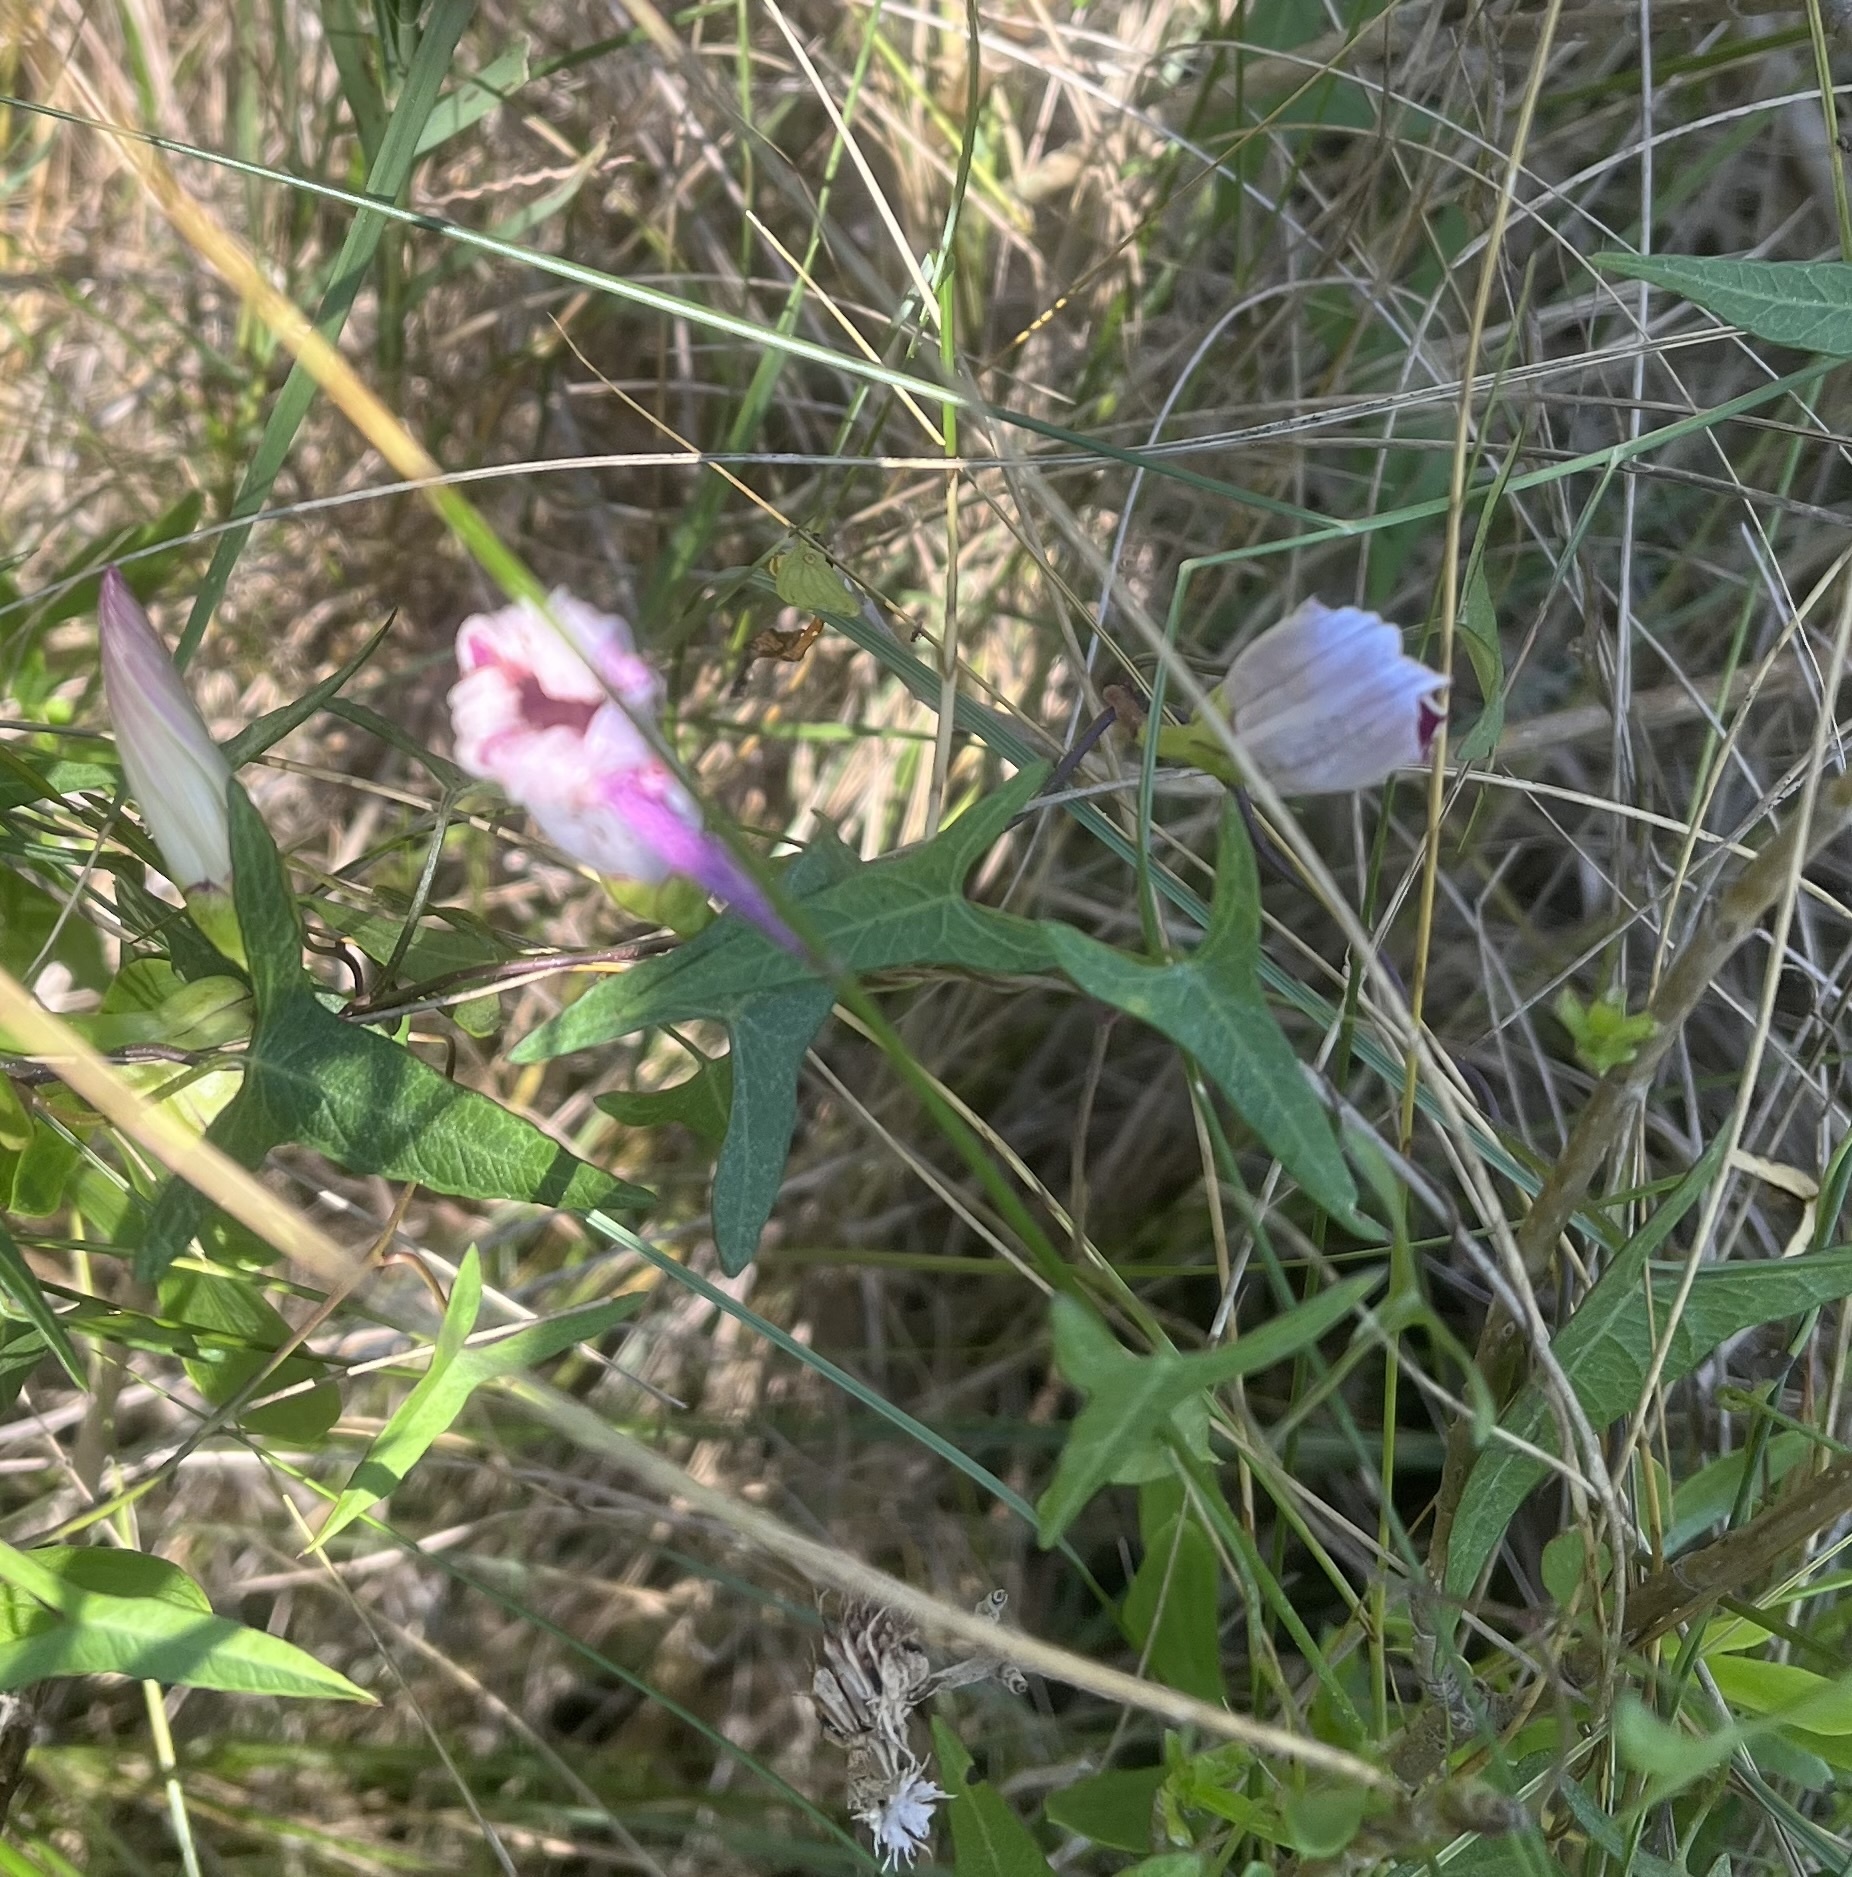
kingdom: Plantae
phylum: Tracheophyta
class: Magnoliopsida
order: Solanales
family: Convolvulaceae
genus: Ipomoea
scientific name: Ipomoea sagittata
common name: Saltmarsh morning glory
